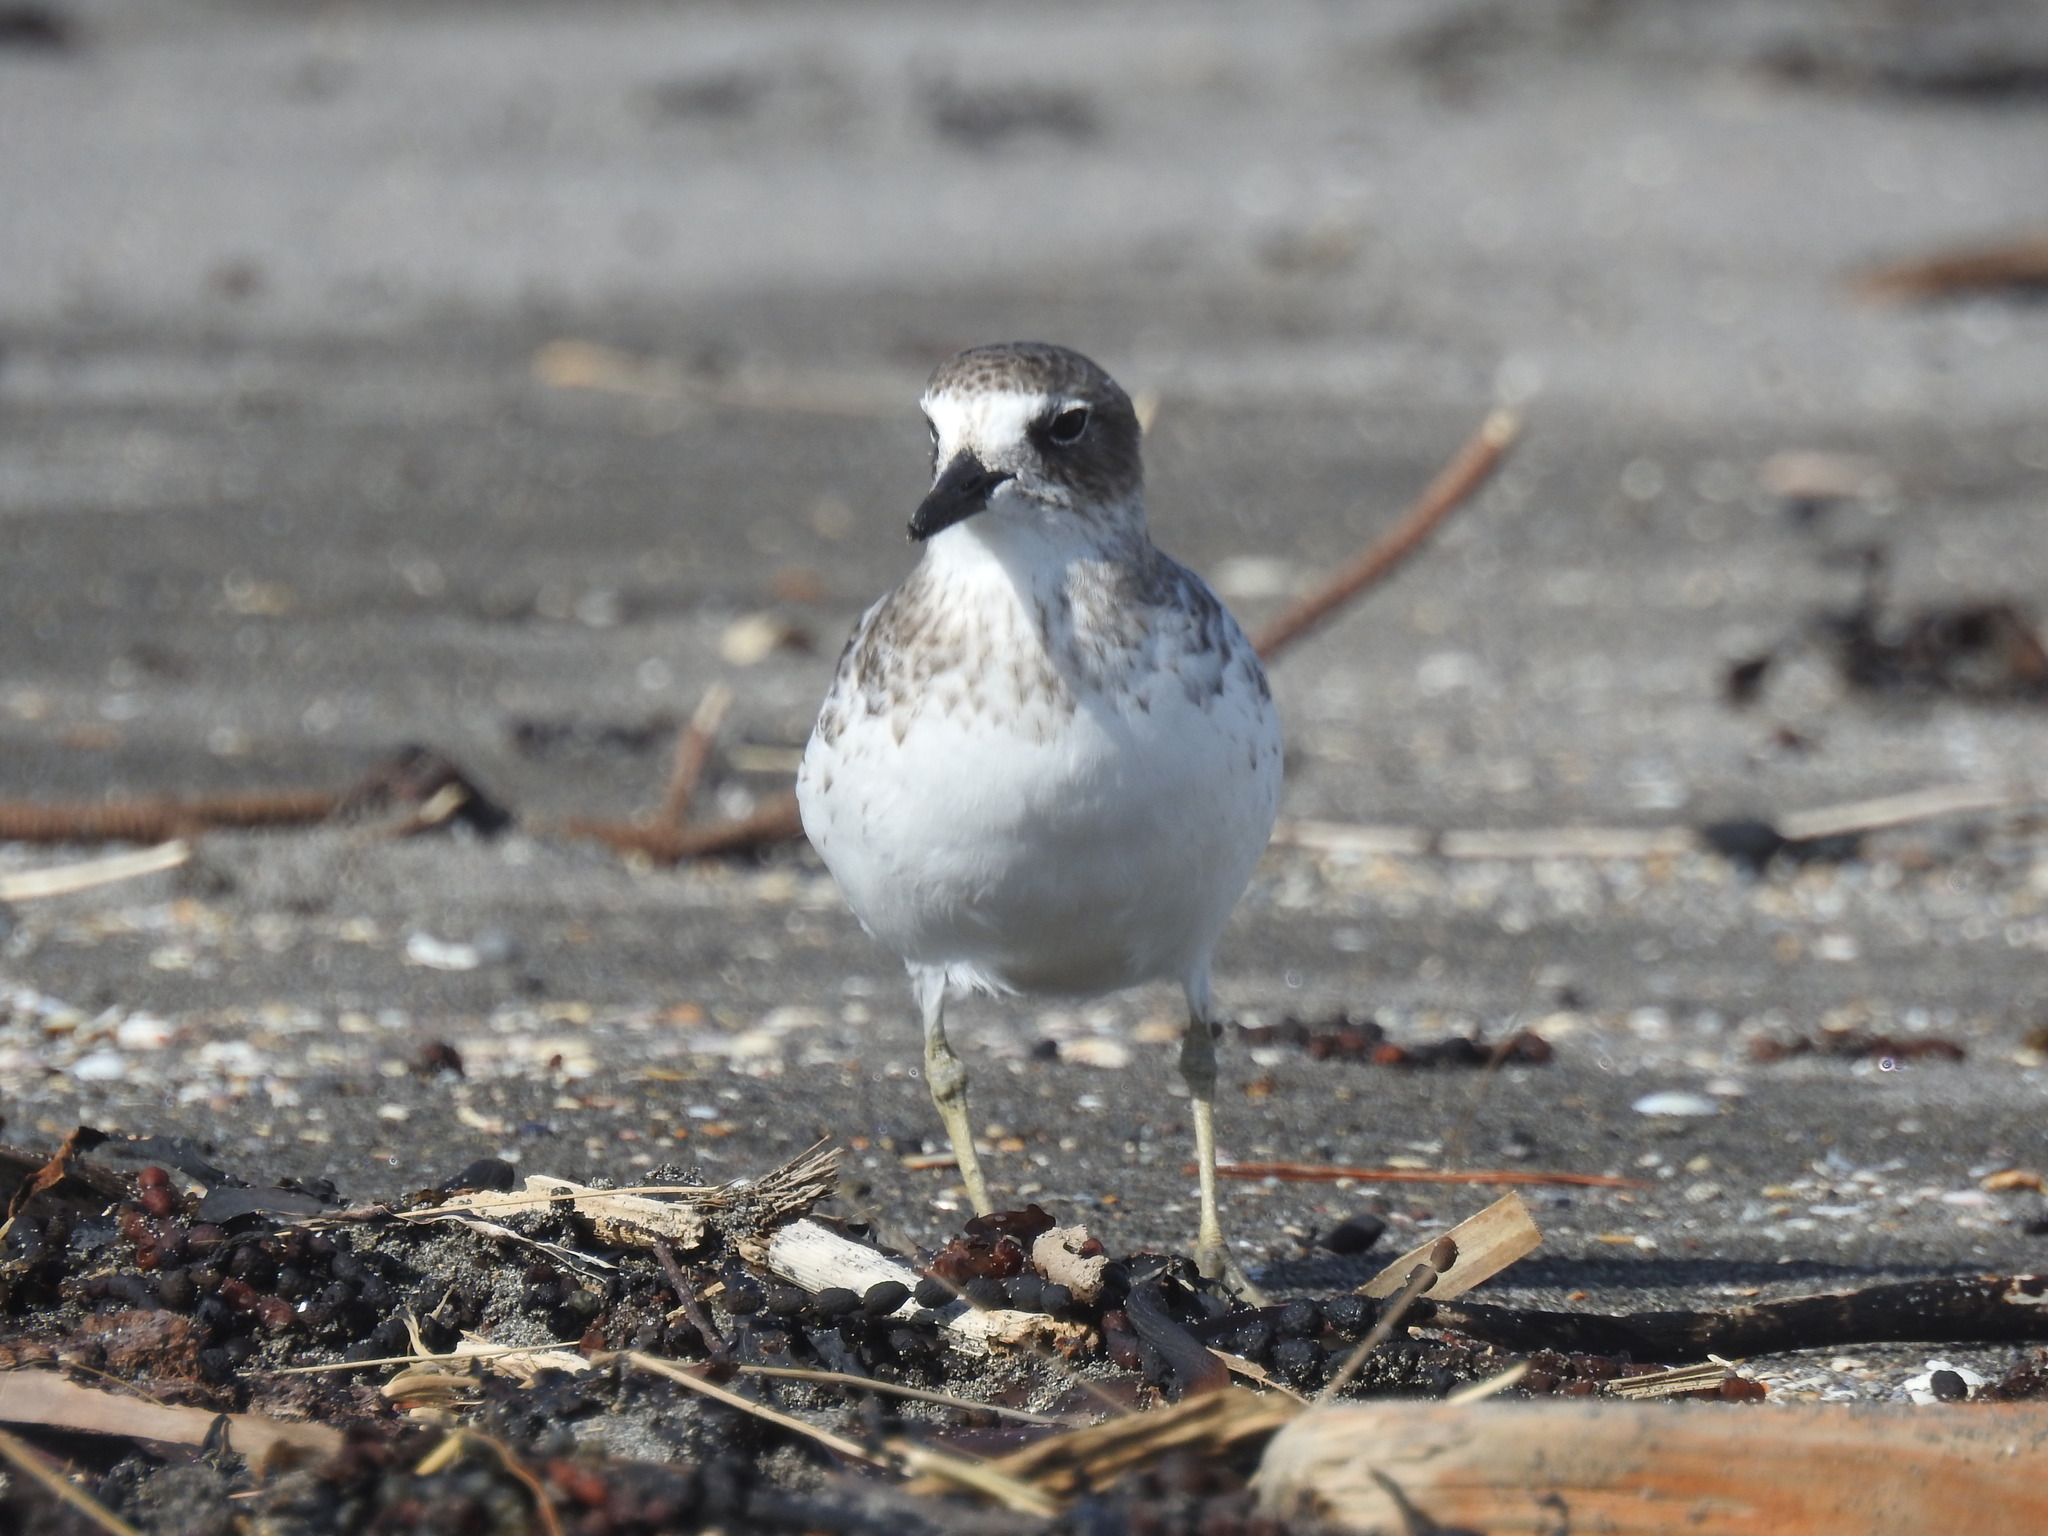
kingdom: Animalia
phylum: Chordata
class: Aves
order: Charadriiformes
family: Charadriidae
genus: Anarhynchus
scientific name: Anarhynchus
